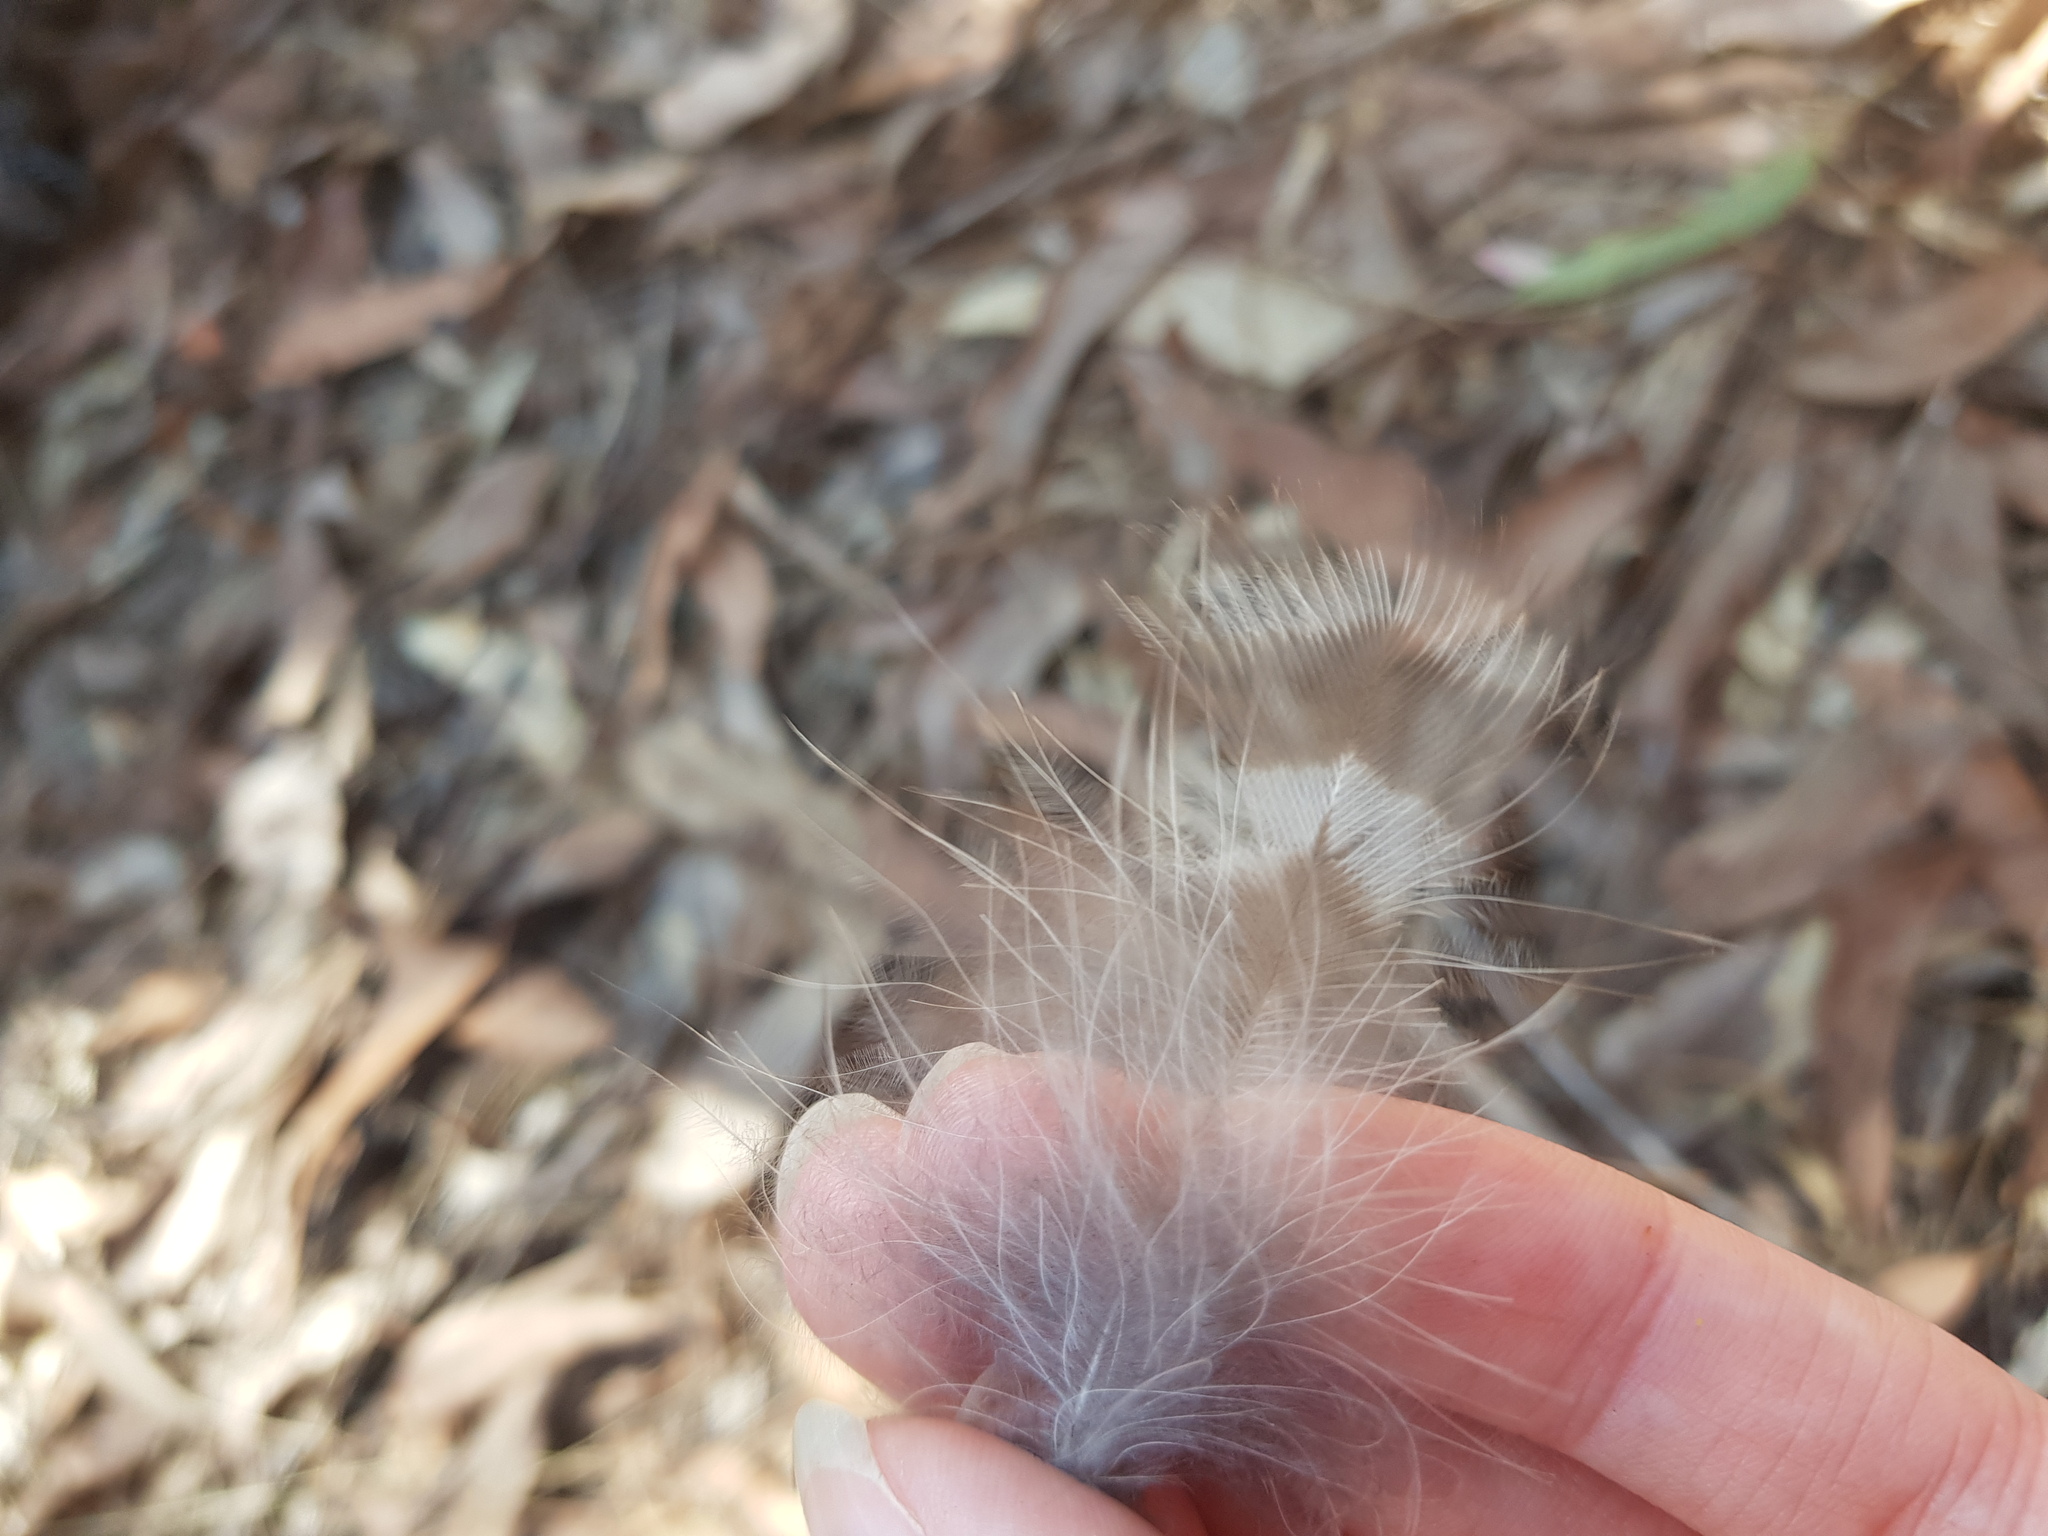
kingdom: Animalia
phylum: Chordata
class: Aves
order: Strigiformes
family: Strigidae
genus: Ninox
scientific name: Ninox strenua
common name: Powerful owl
